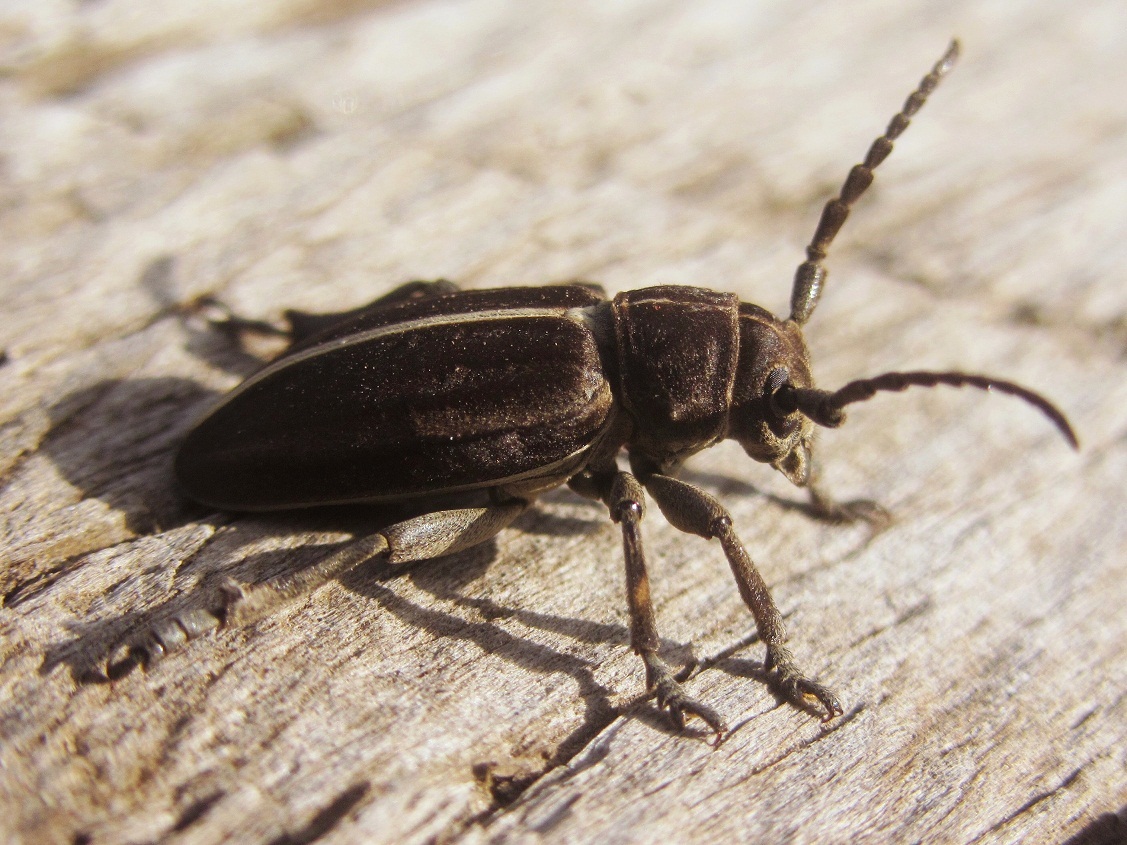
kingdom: Animalia
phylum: Arthropoda
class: Insecta
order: Coleoptera
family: Cerambycidae
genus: Dorcadion
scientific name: Dorcadion holosericeum
